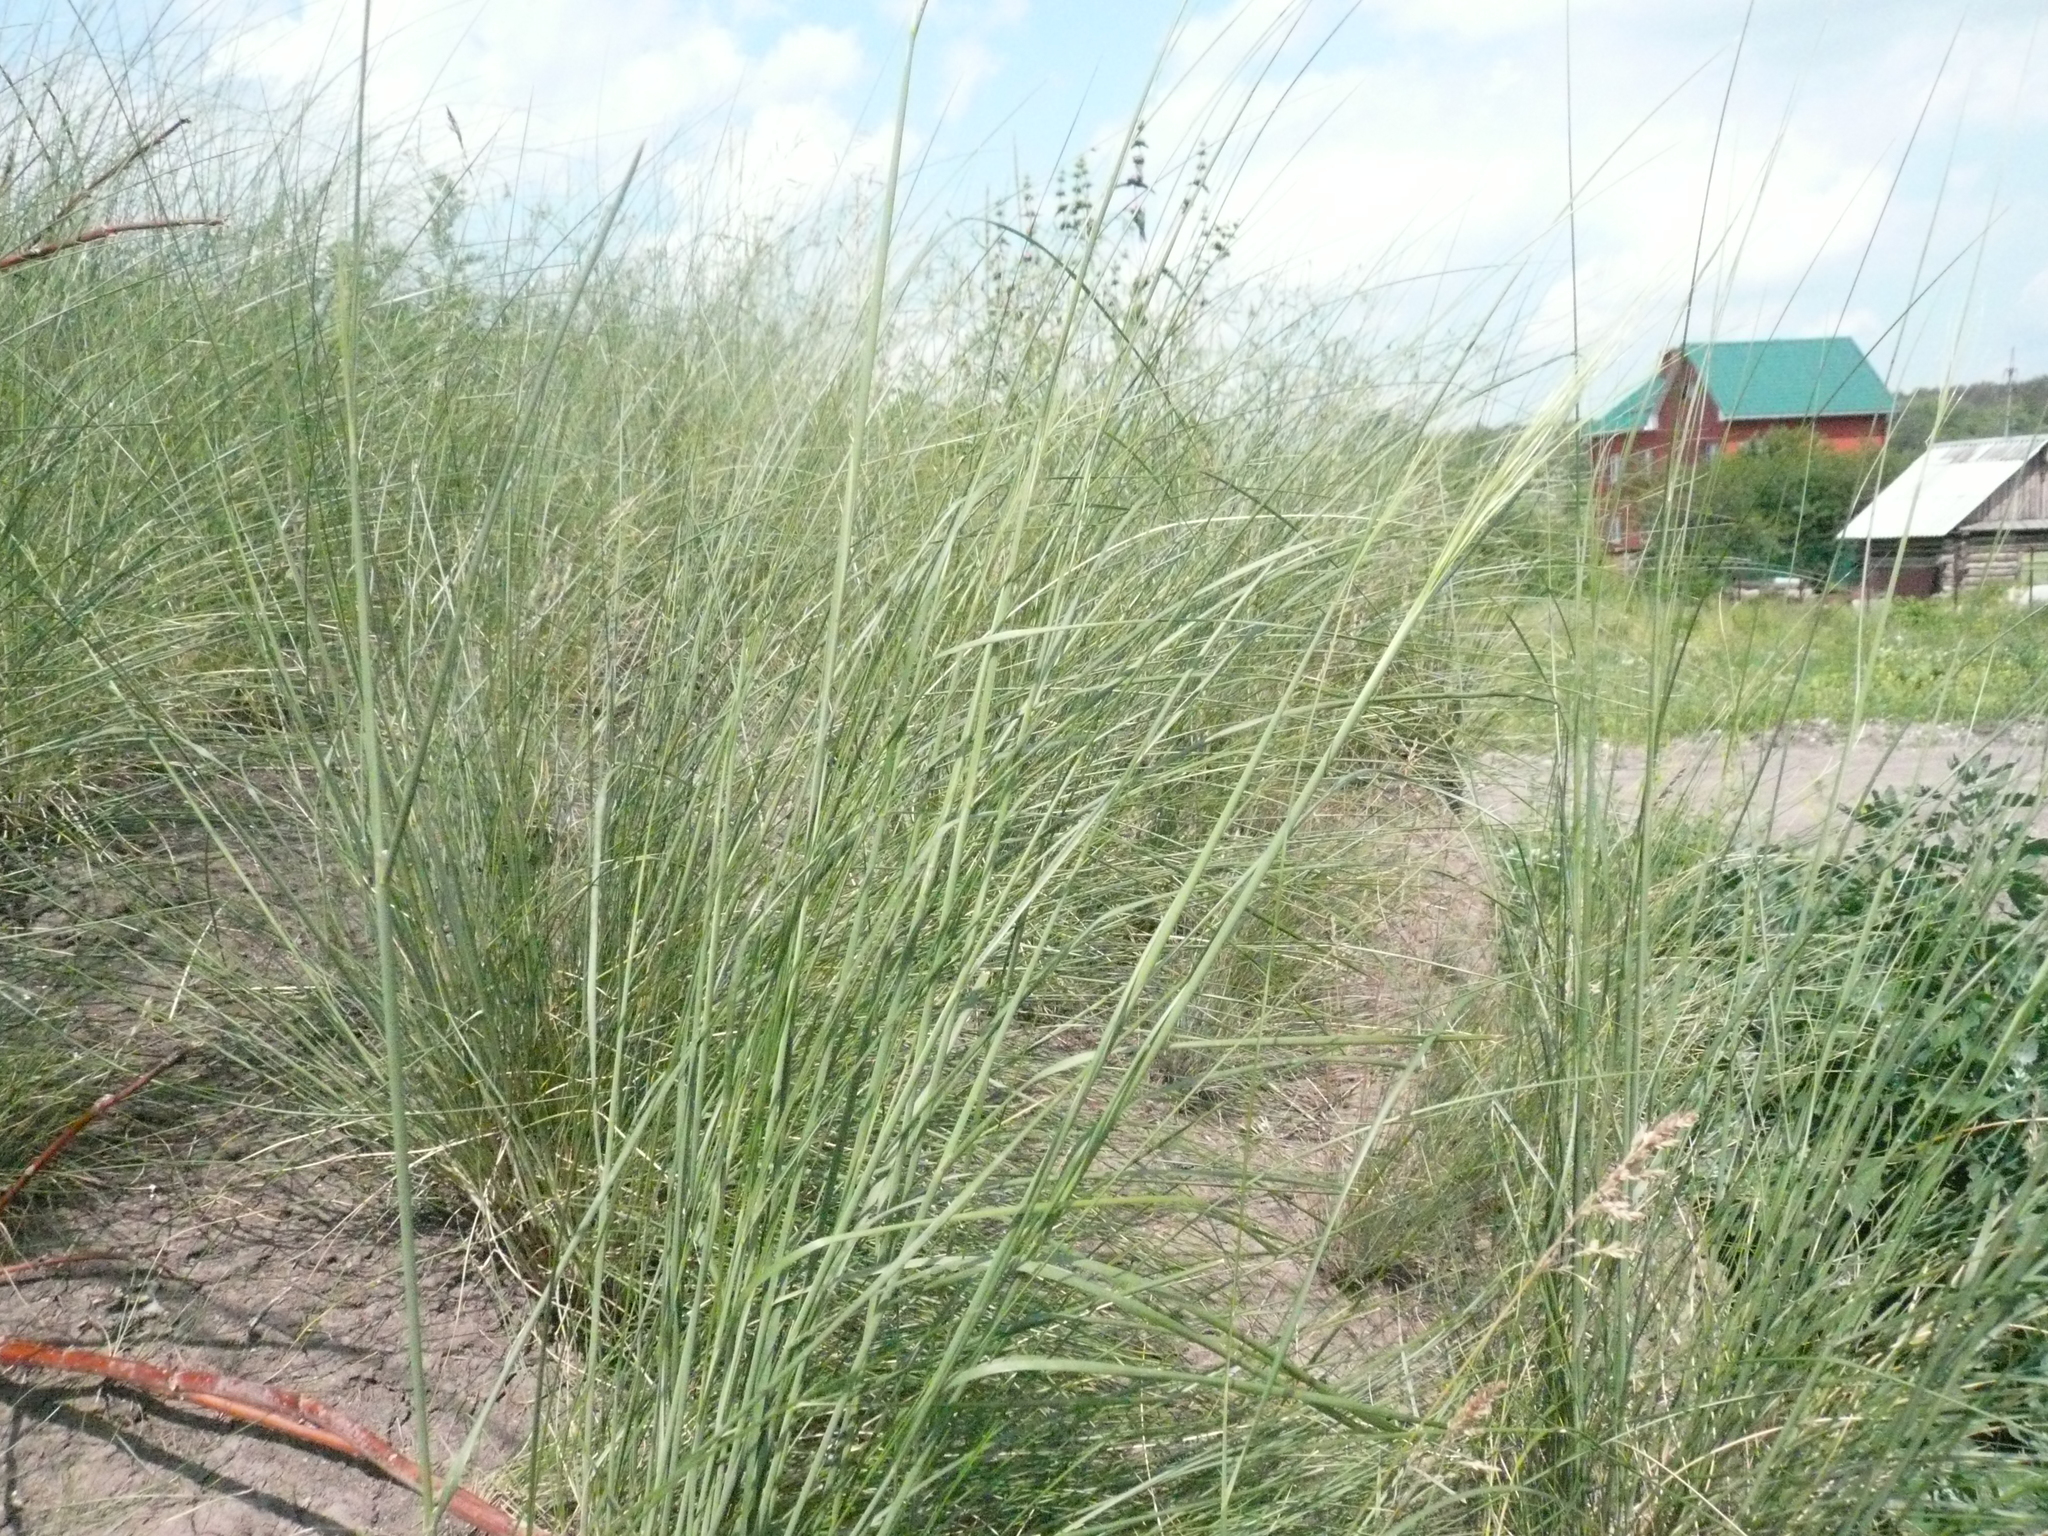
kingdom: Plantae
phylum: Tracheophyta
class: Liliopsida
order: Poales
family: Poaceae
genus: Stipa
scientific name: Stipa capillata
